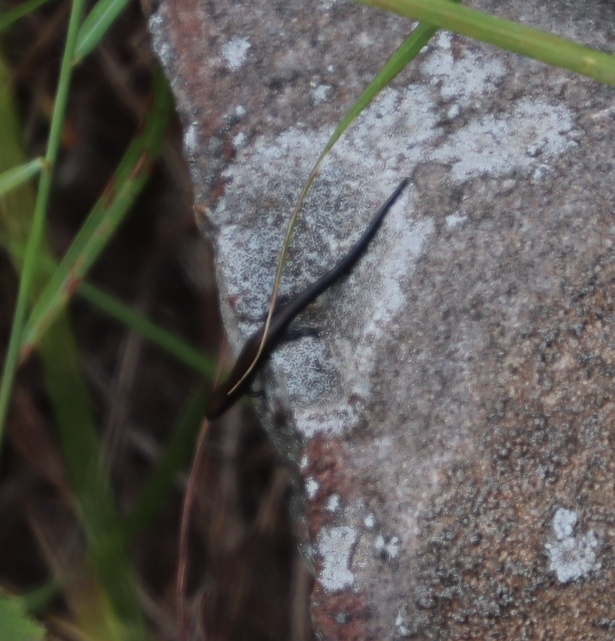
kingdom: Animalia
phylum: Chordata
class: Squamata
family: Scincidae
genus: Panaspis
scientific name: Panaspis wahlbergii
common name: Angolan snake-eyed skink
